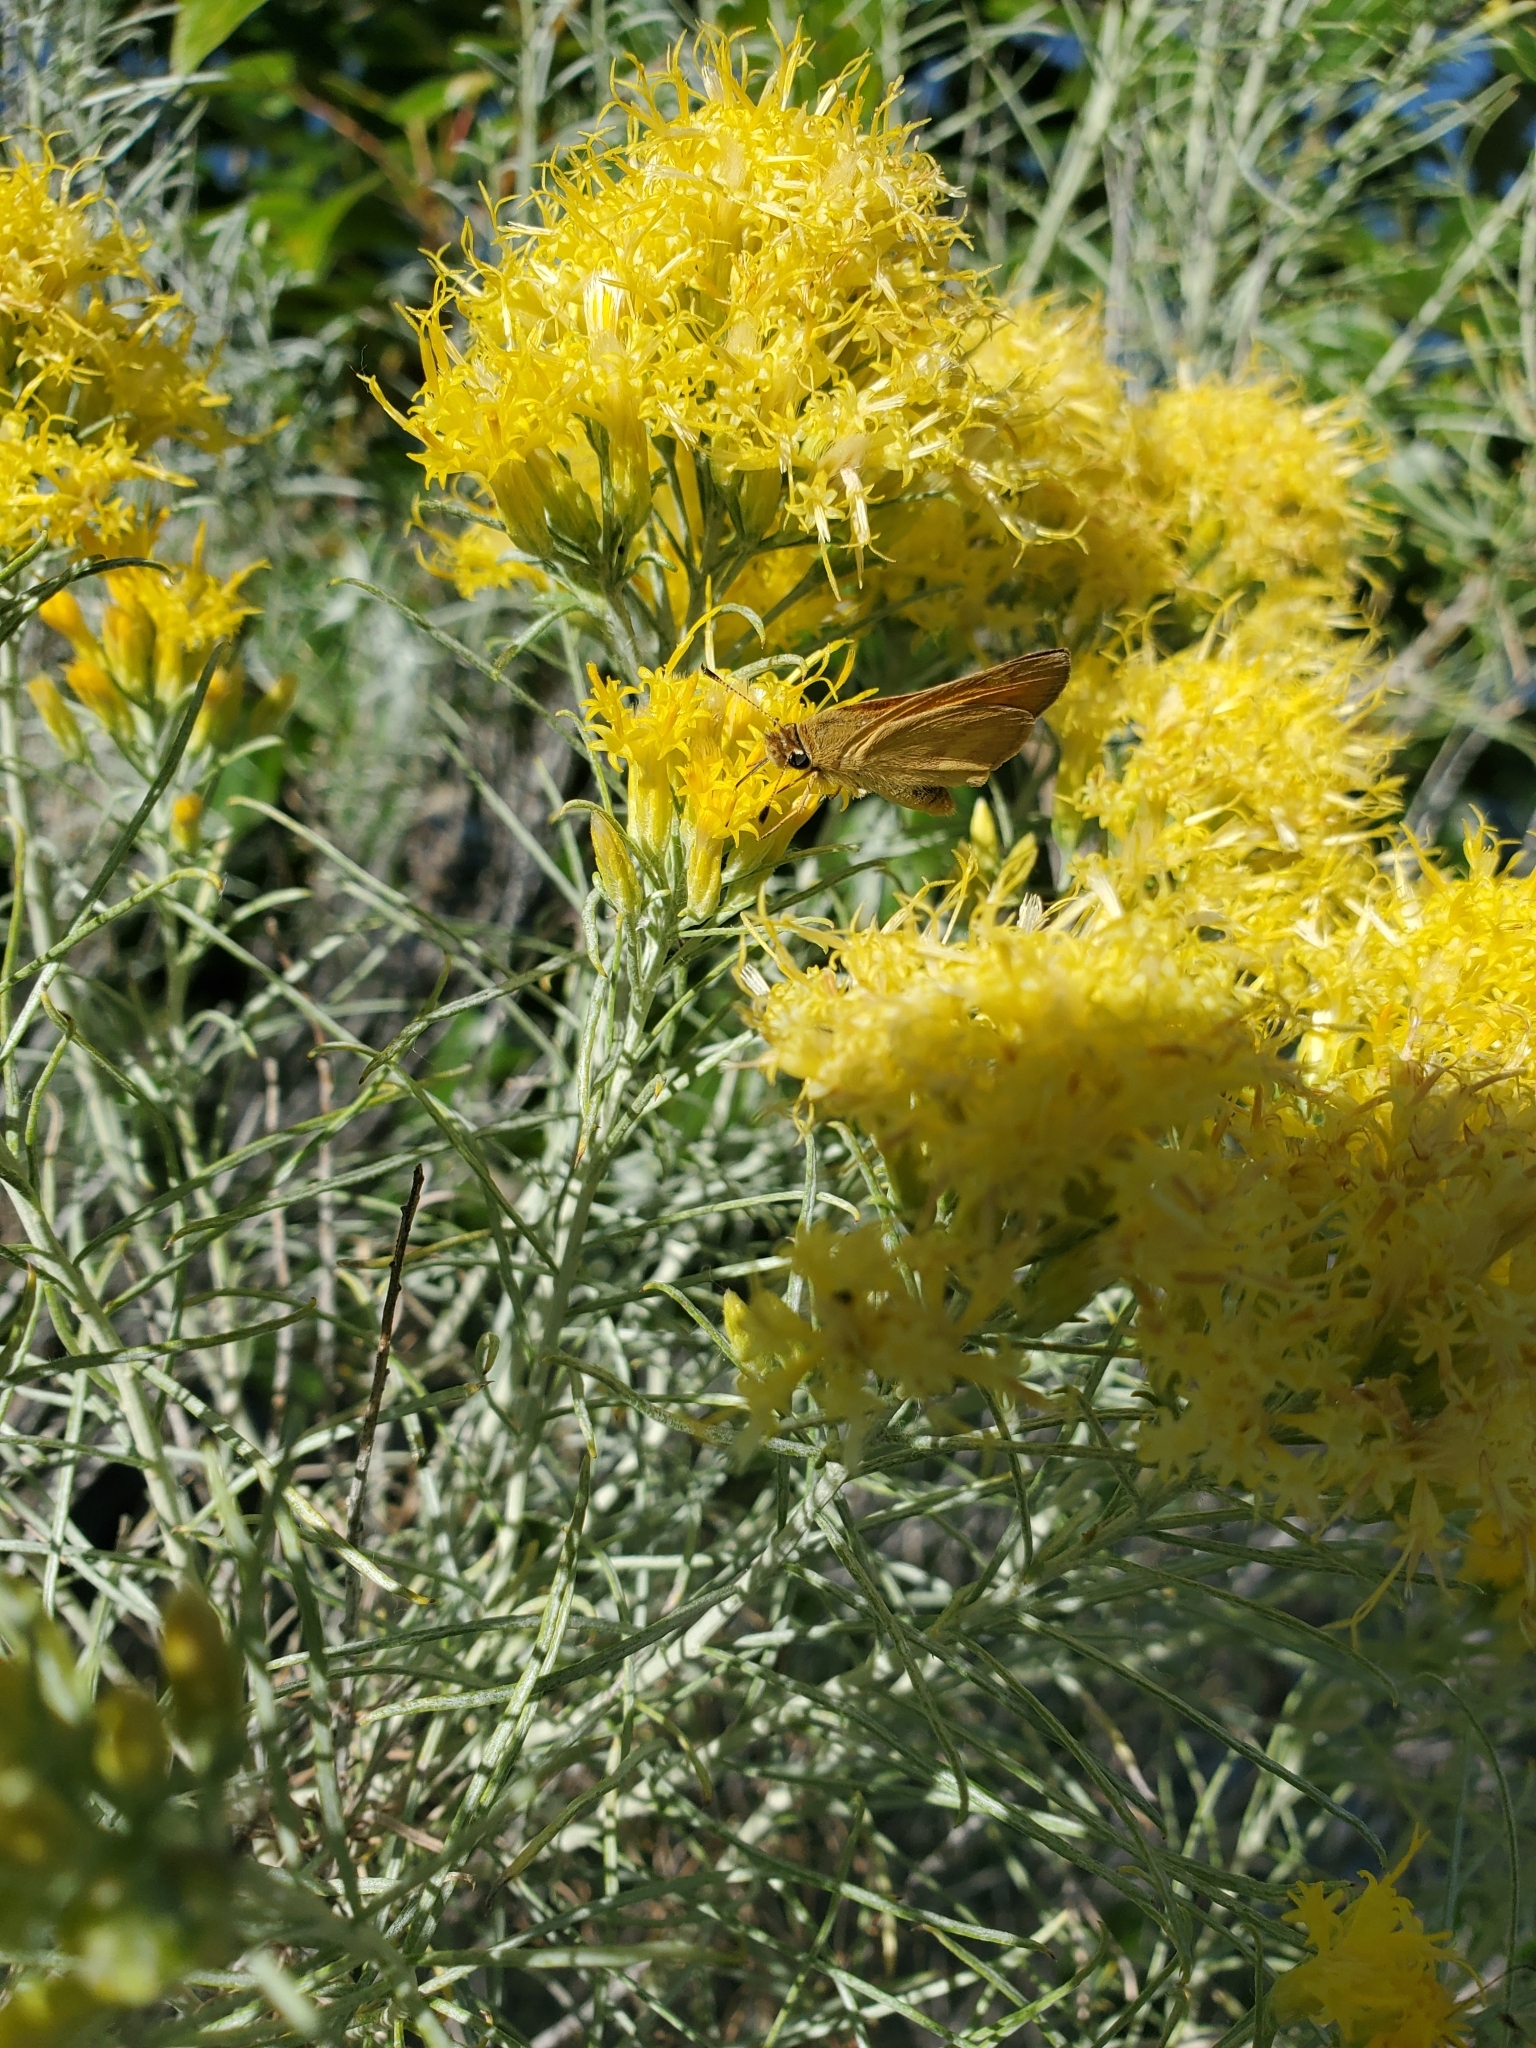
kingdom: Animalia
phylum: Arthropoda
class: Insecta
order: Lepidoptera
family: Hesperiidae
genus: Ochlodes
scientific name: Ochlodes sylvanoides
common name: Woodland skipper
